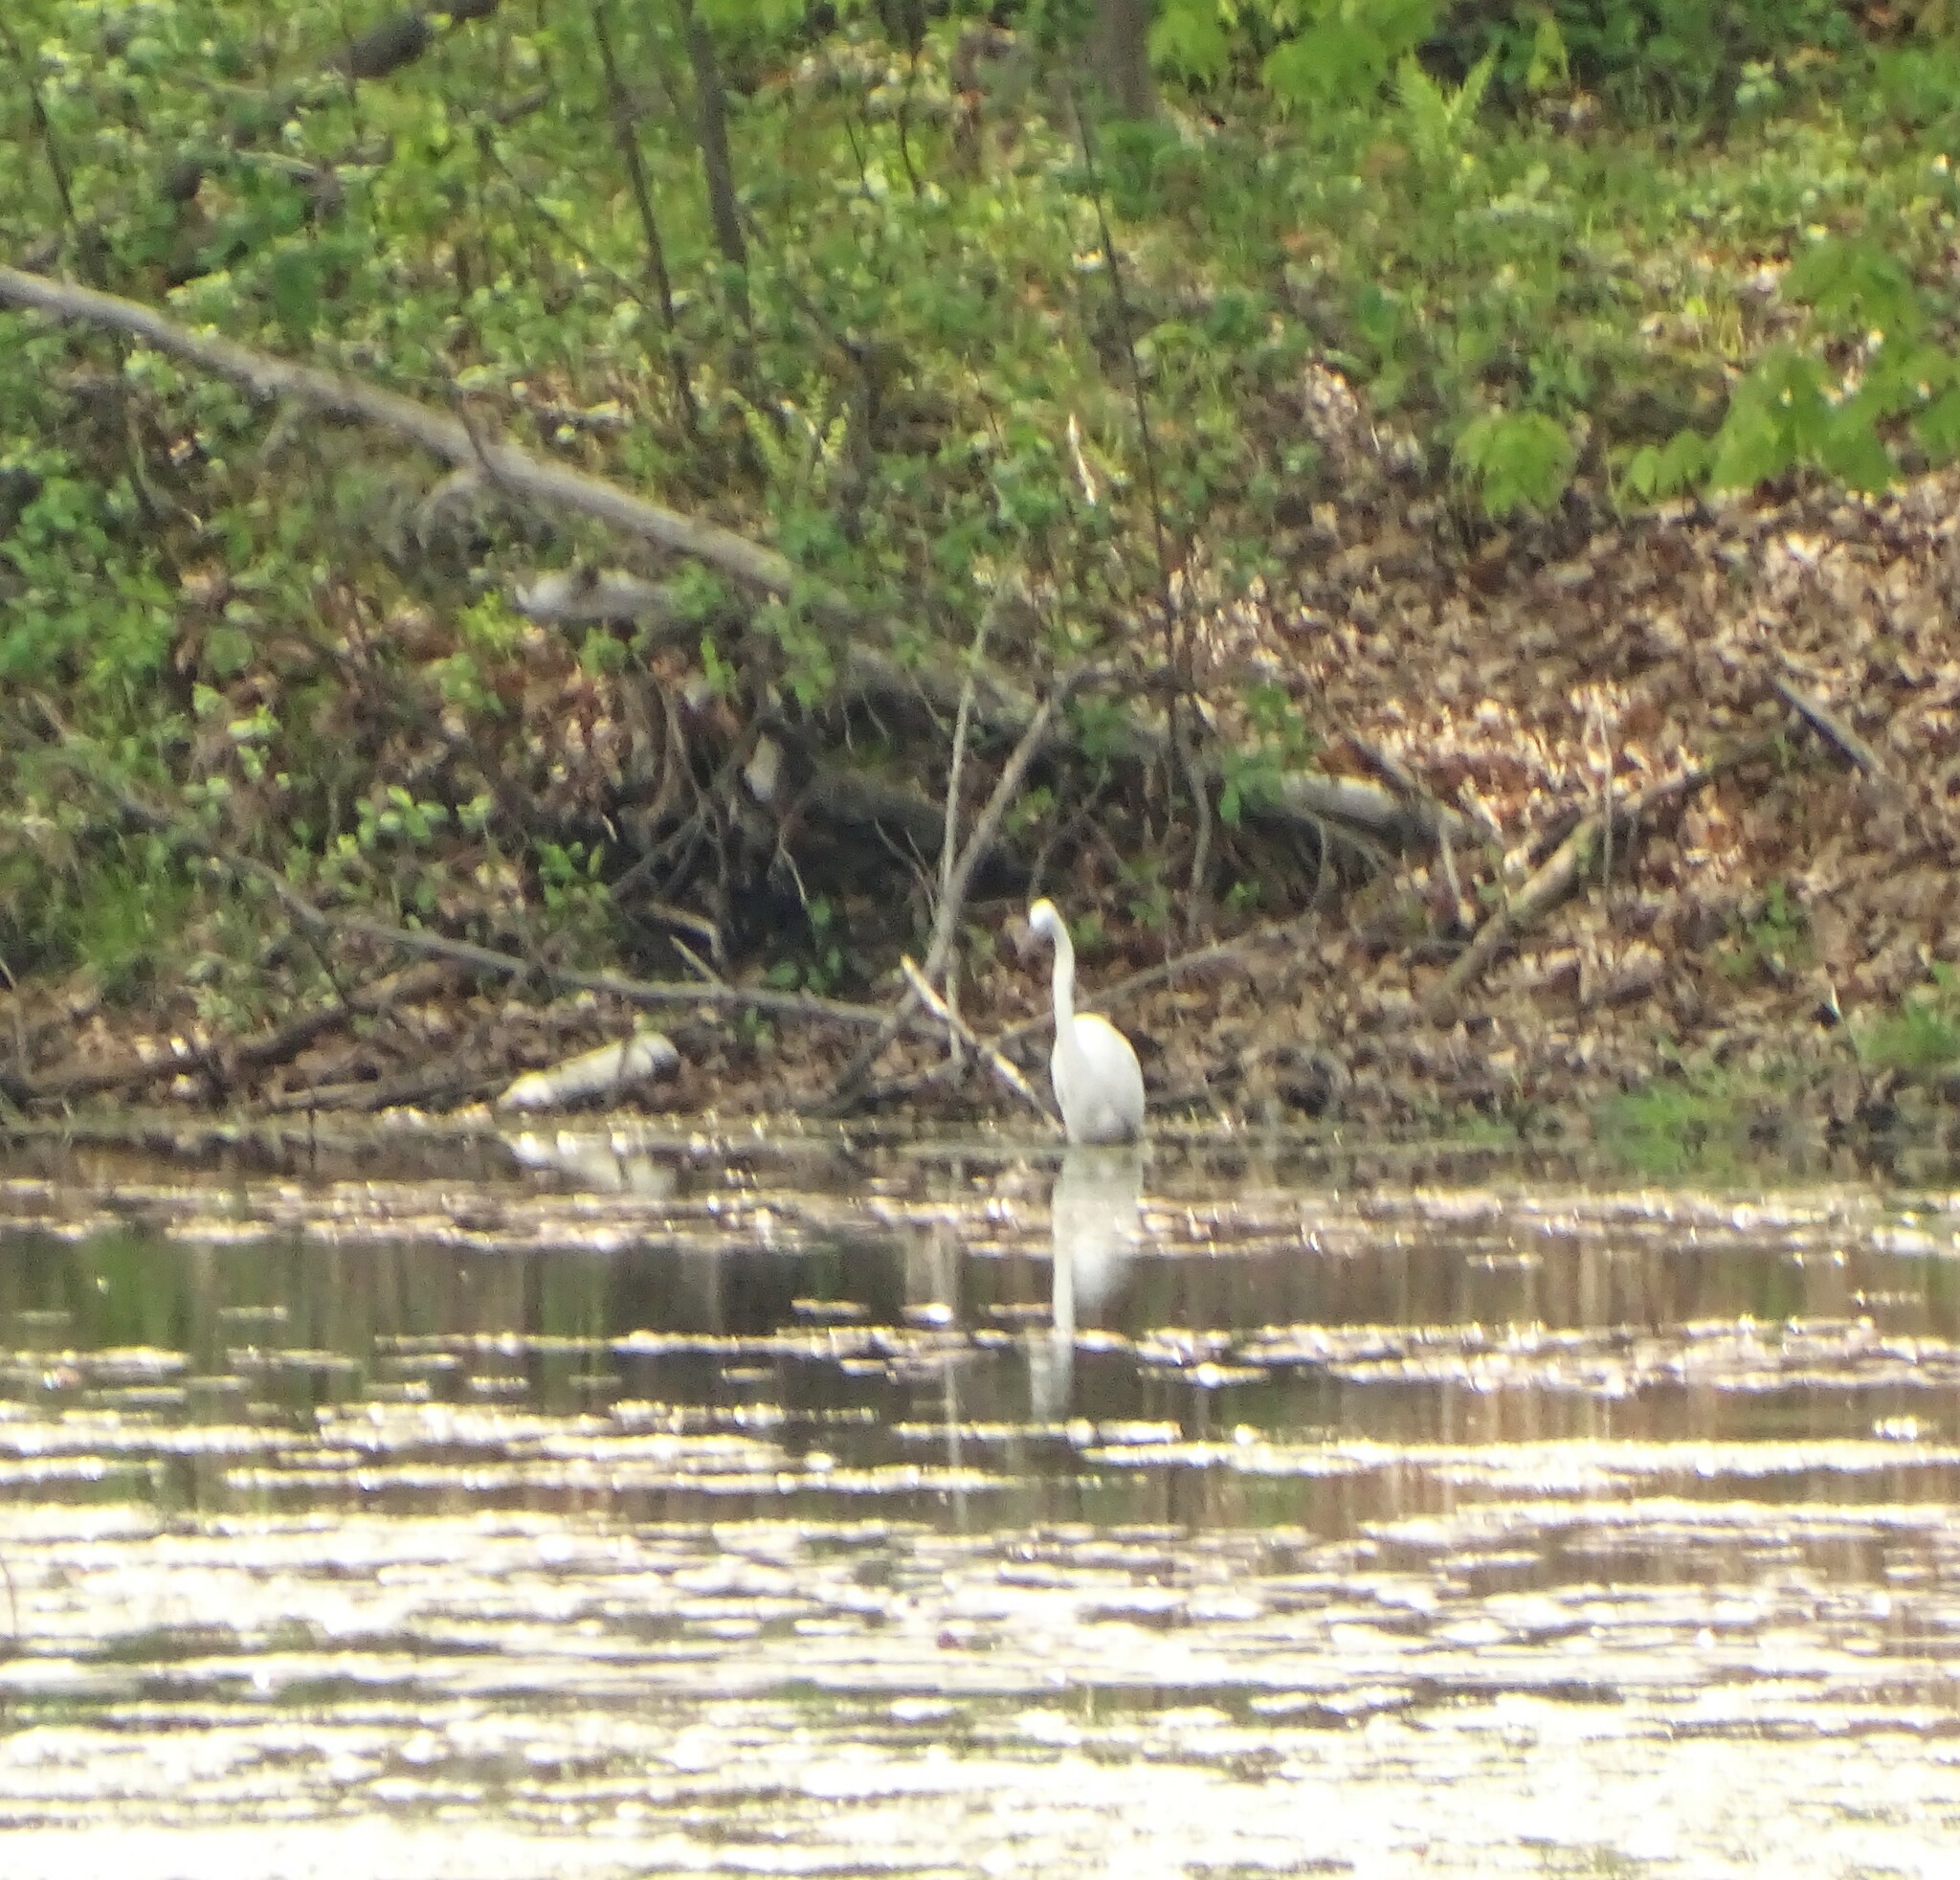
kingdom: Animalia
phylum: Chordata
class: Aves
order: Pelecaniformes
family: Ardeidae
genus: Ardea
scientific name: Ardea alba
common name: Great egret
